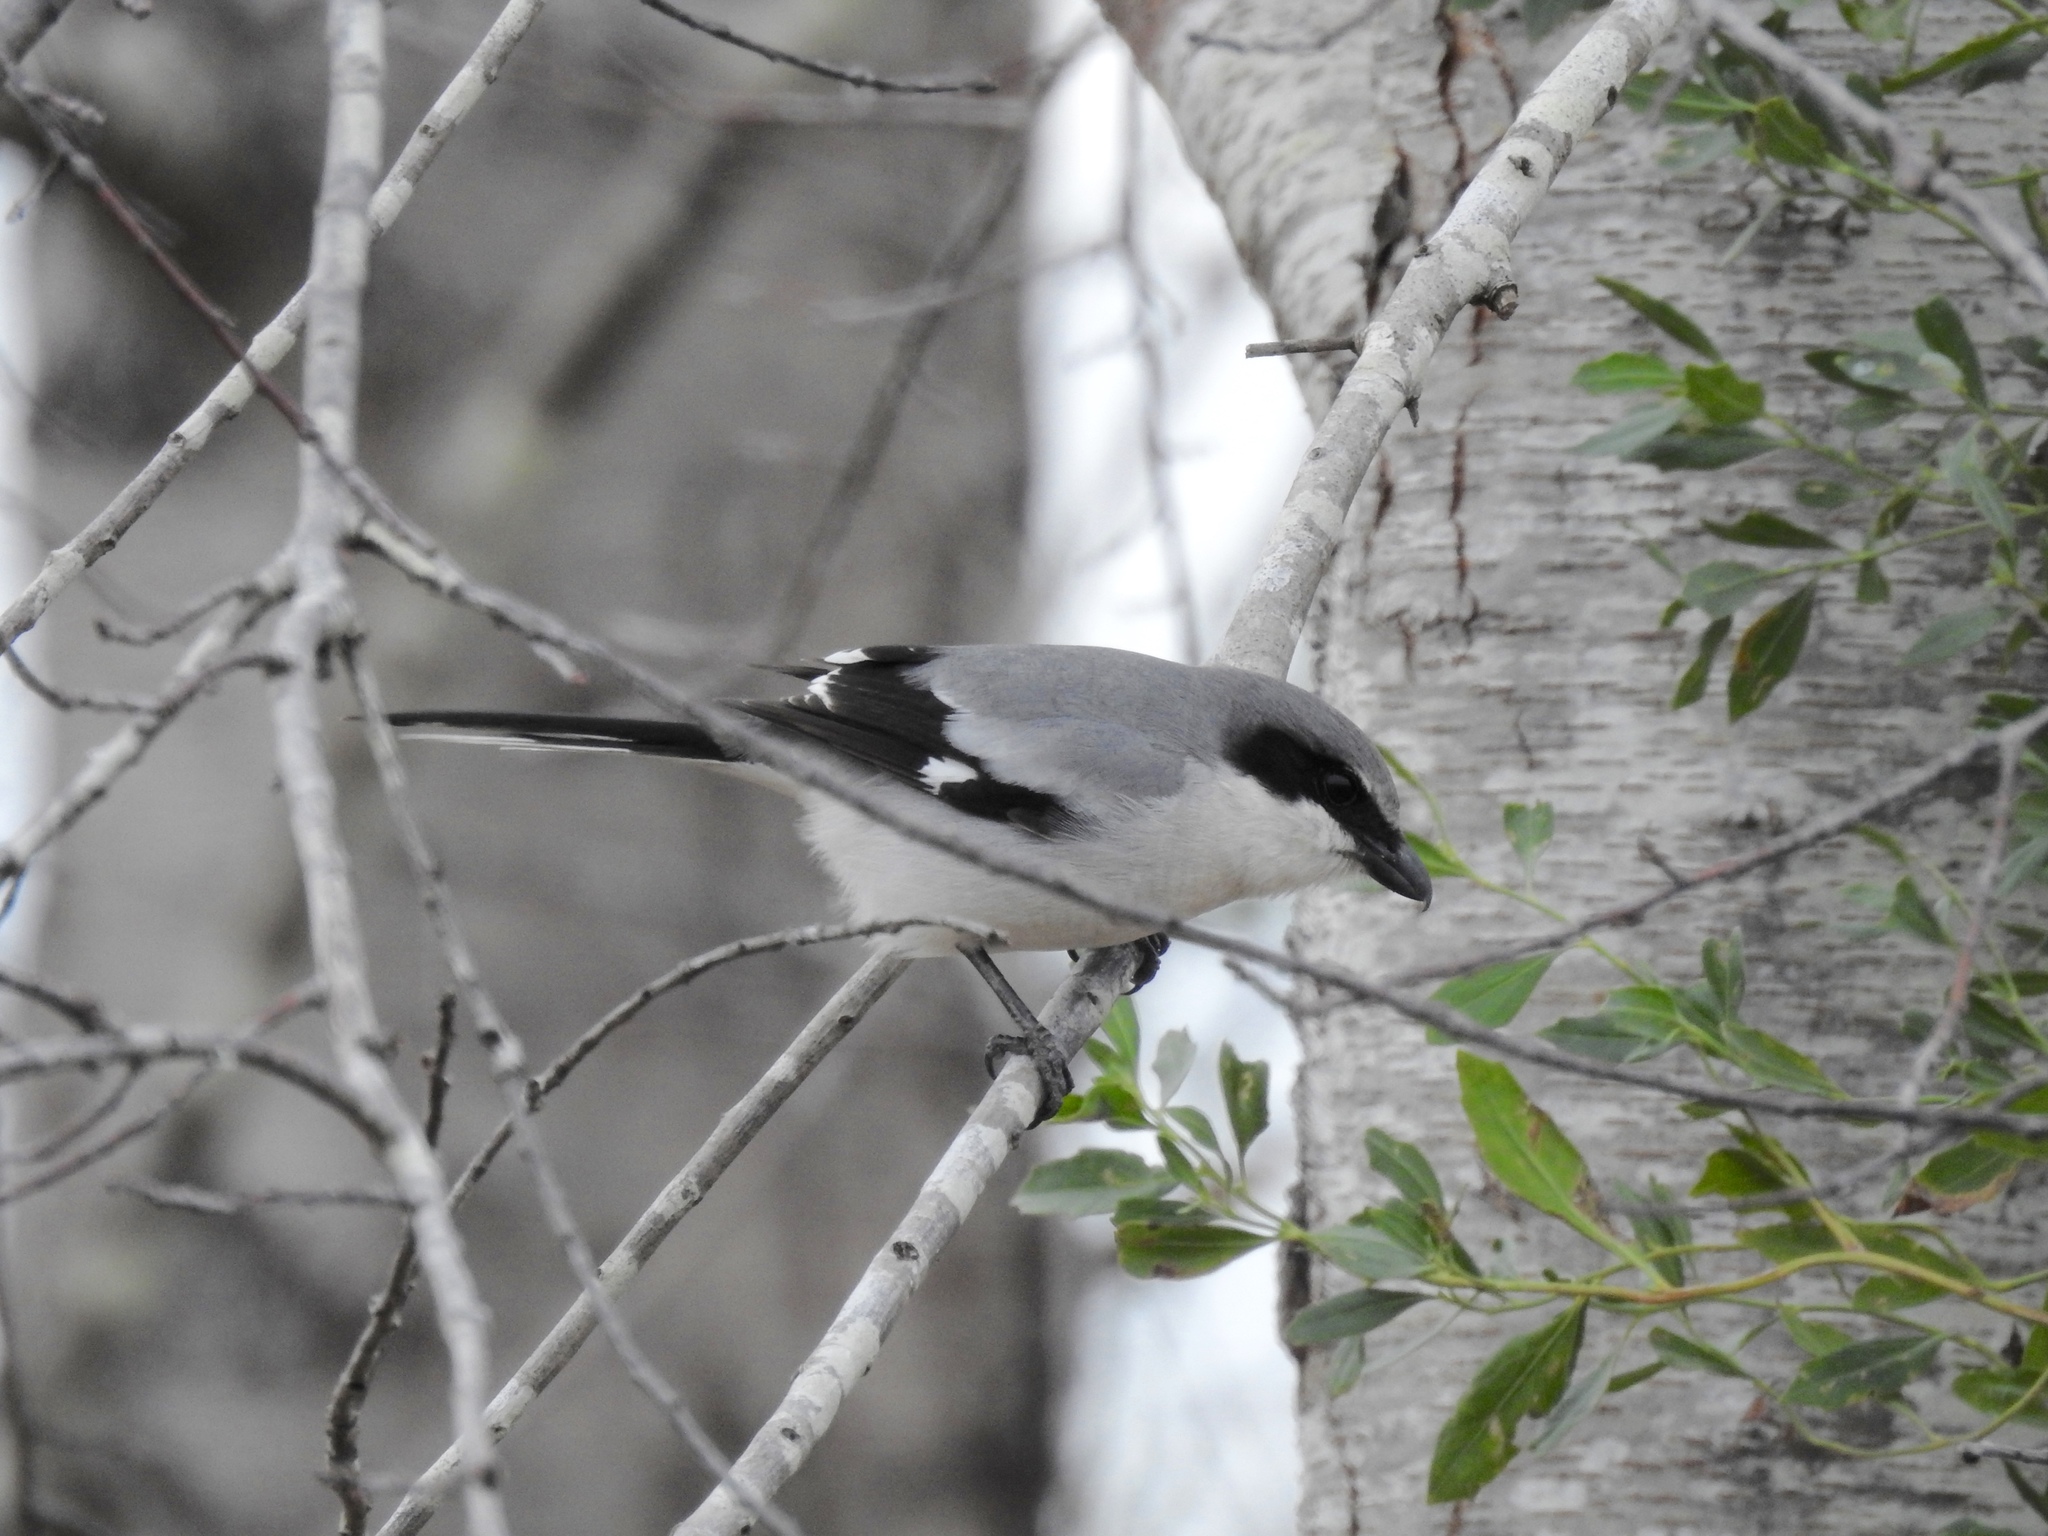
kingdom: Animalia
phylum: Chordata
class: Aves
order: Passeriformes
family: Laniidae
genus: Lanius
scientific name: Lanius ludovicianus
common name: Loggerhead shrike
